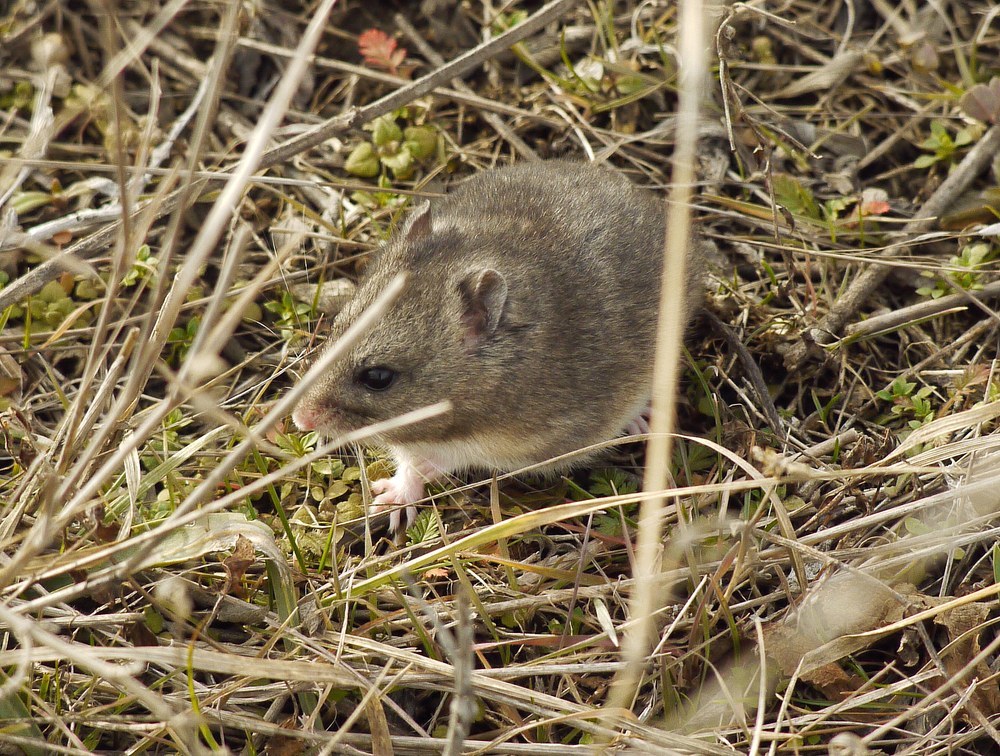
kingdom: Animalia
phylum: Chordata
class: Mammalia
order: Rodentia
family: Cricetidae
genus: Nothocricetulus
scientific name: Nothocricetulus
